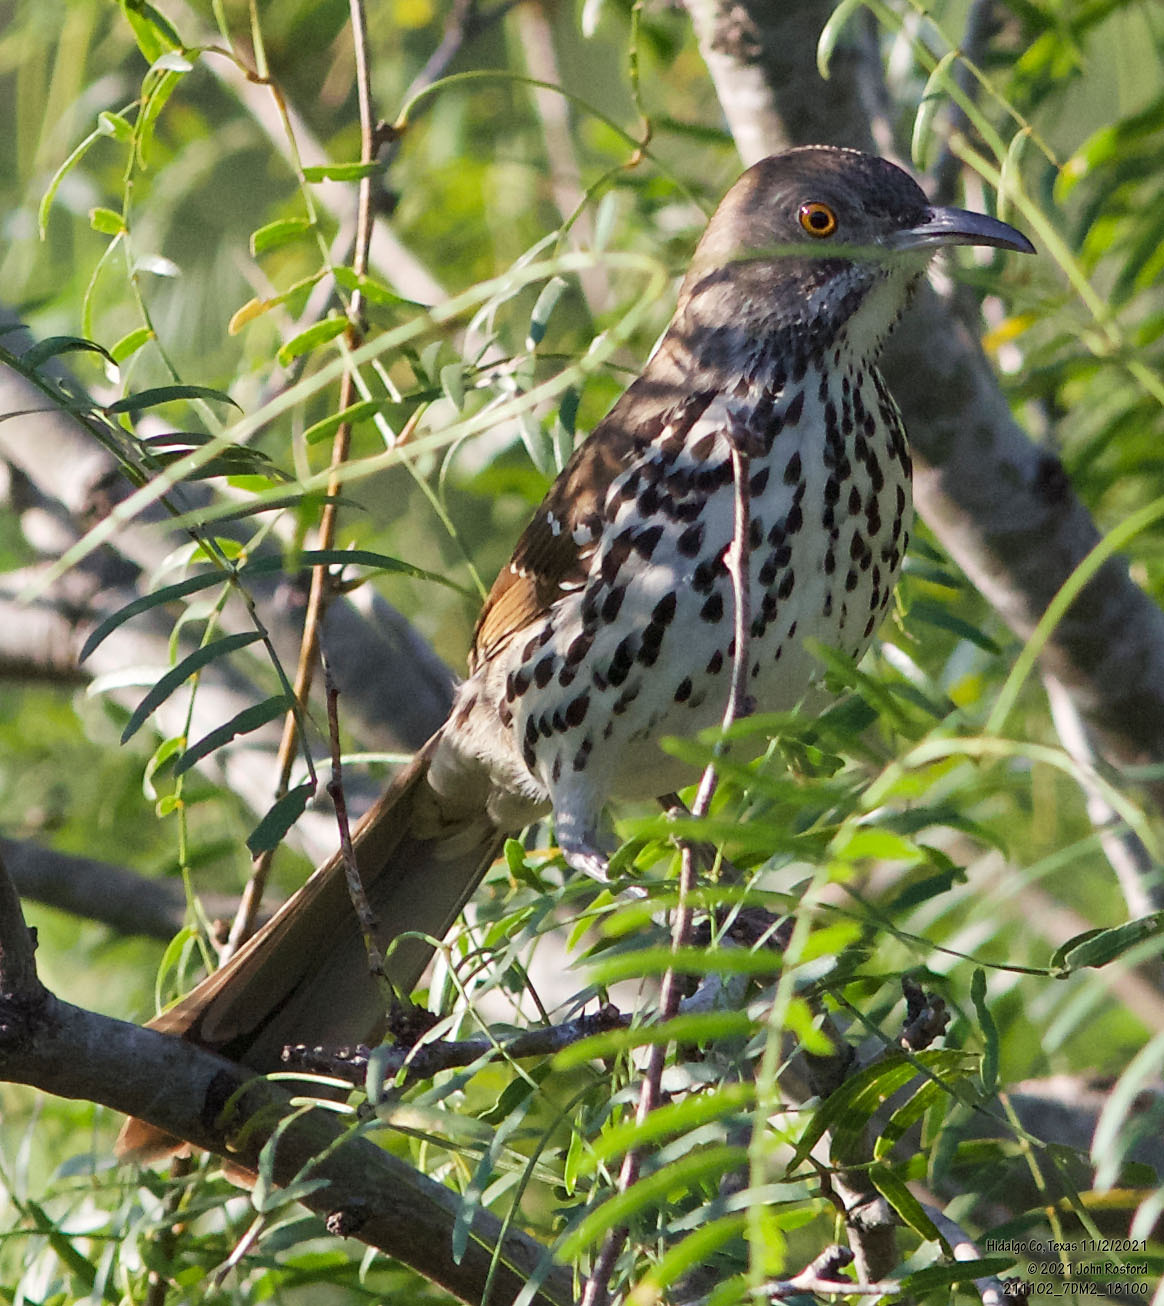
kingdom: Animalia
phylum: Chordata
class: Aves
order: Passeriformes
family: Mimidae
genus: Toxostoma
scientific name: Toxostoma longirostre
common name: Long-billed thrasher
